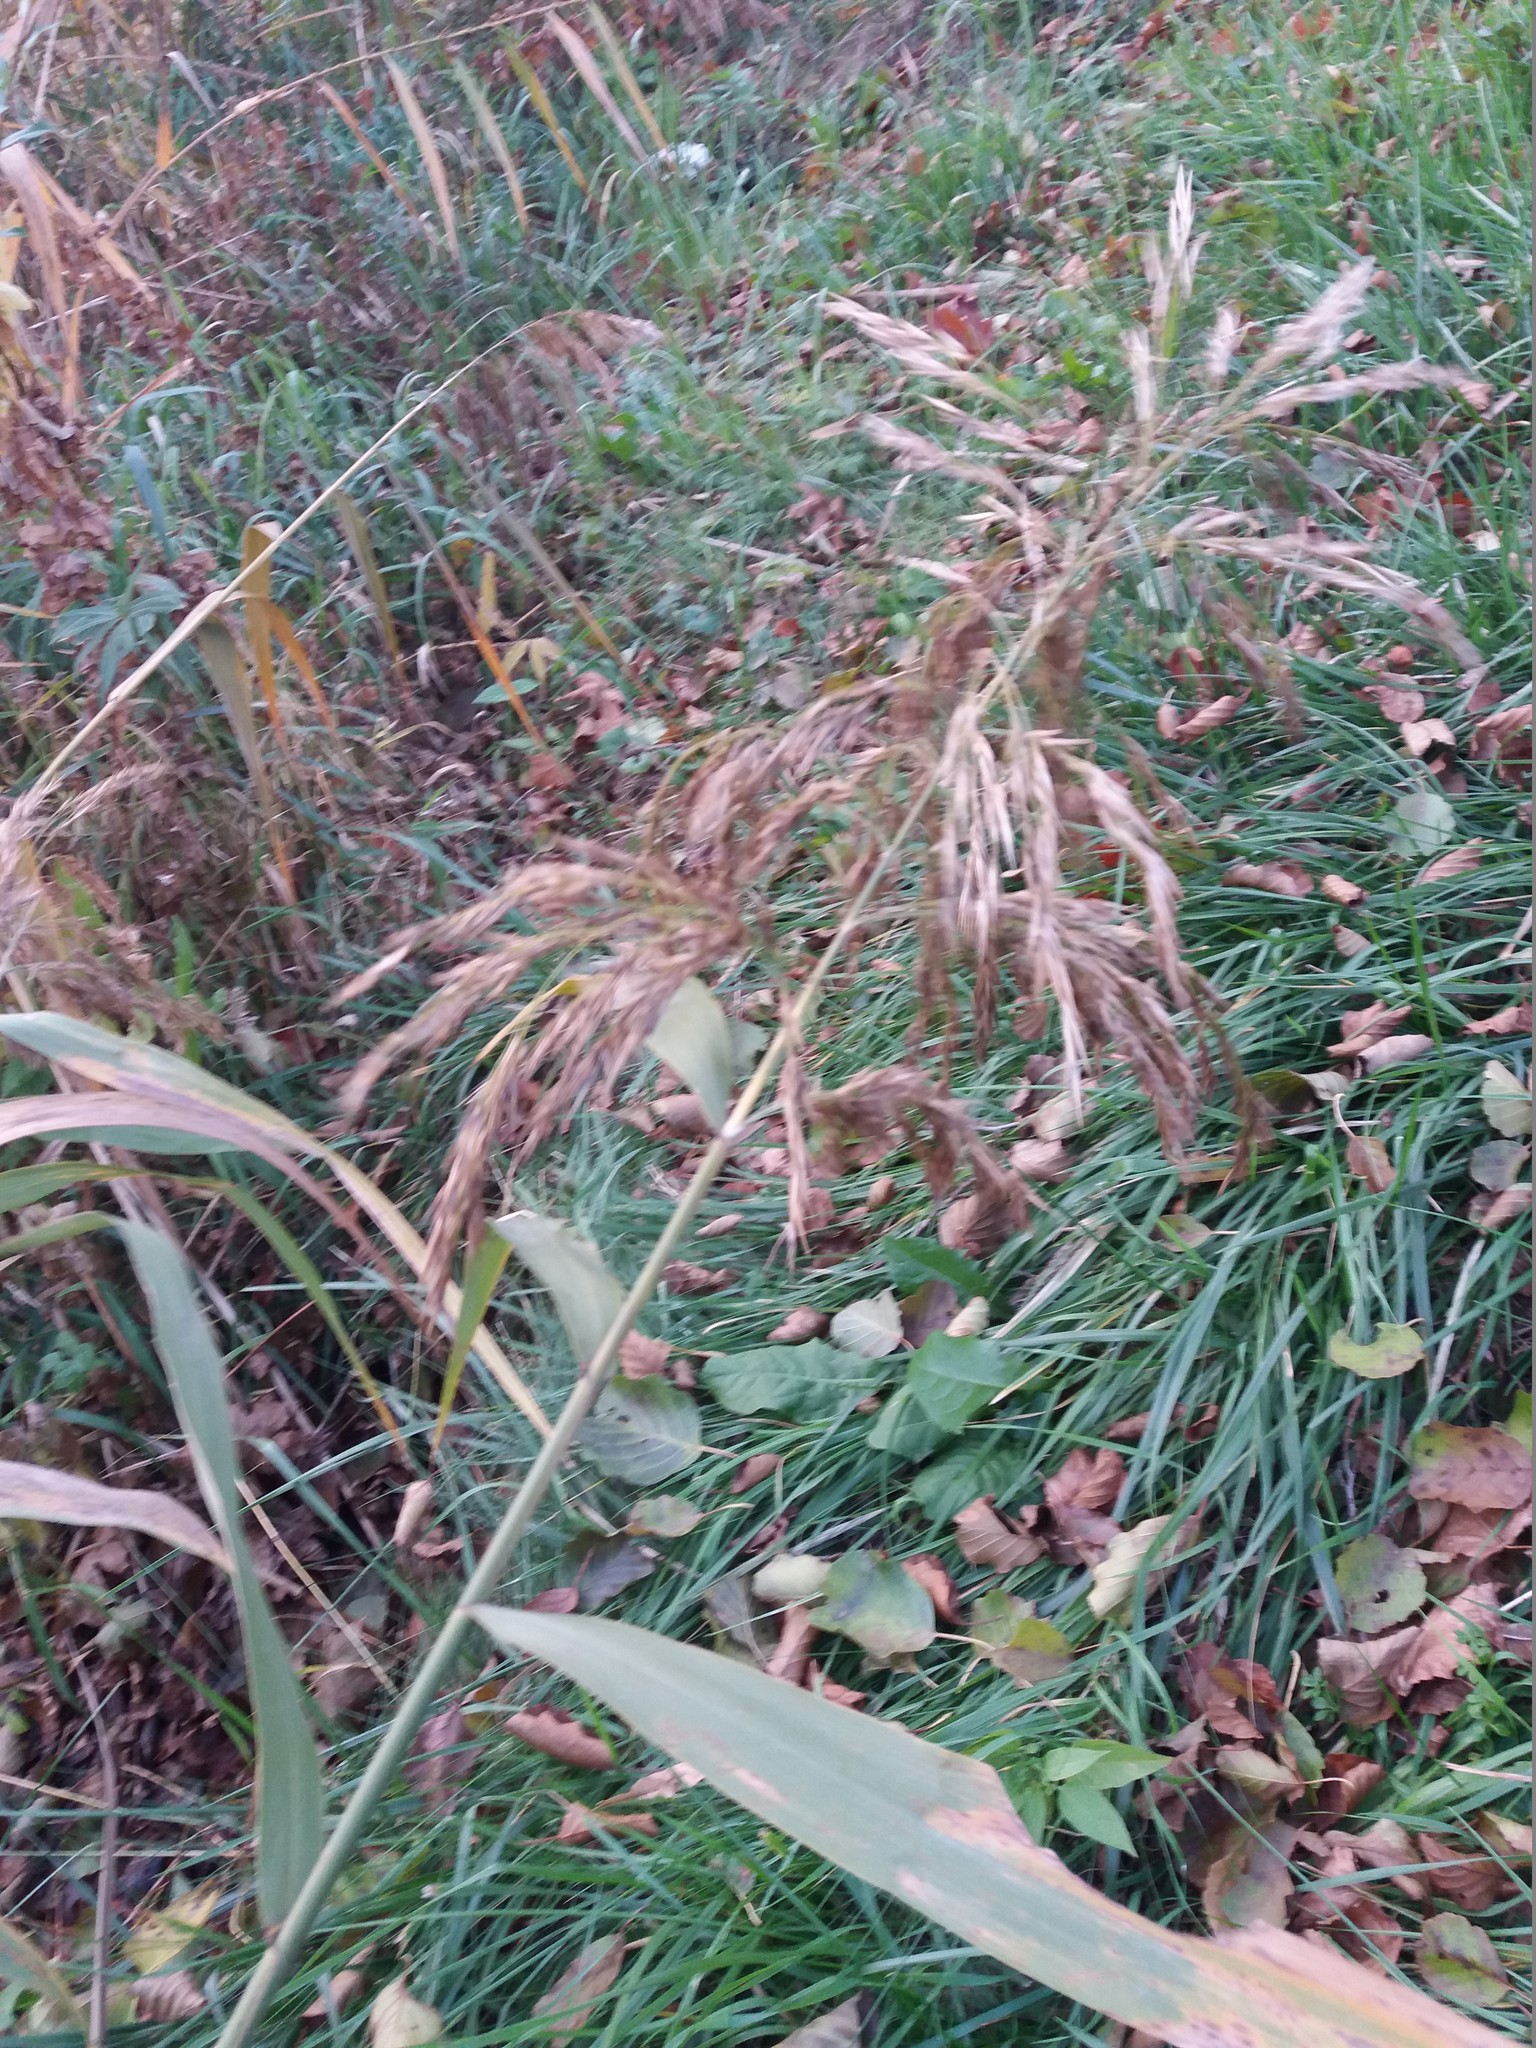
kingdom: Plantae
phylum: Tracheophyta
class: Liliopsida
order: Poales
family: Poaceae
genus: Phragmites
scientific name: Phragmites australis
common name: Common reed
